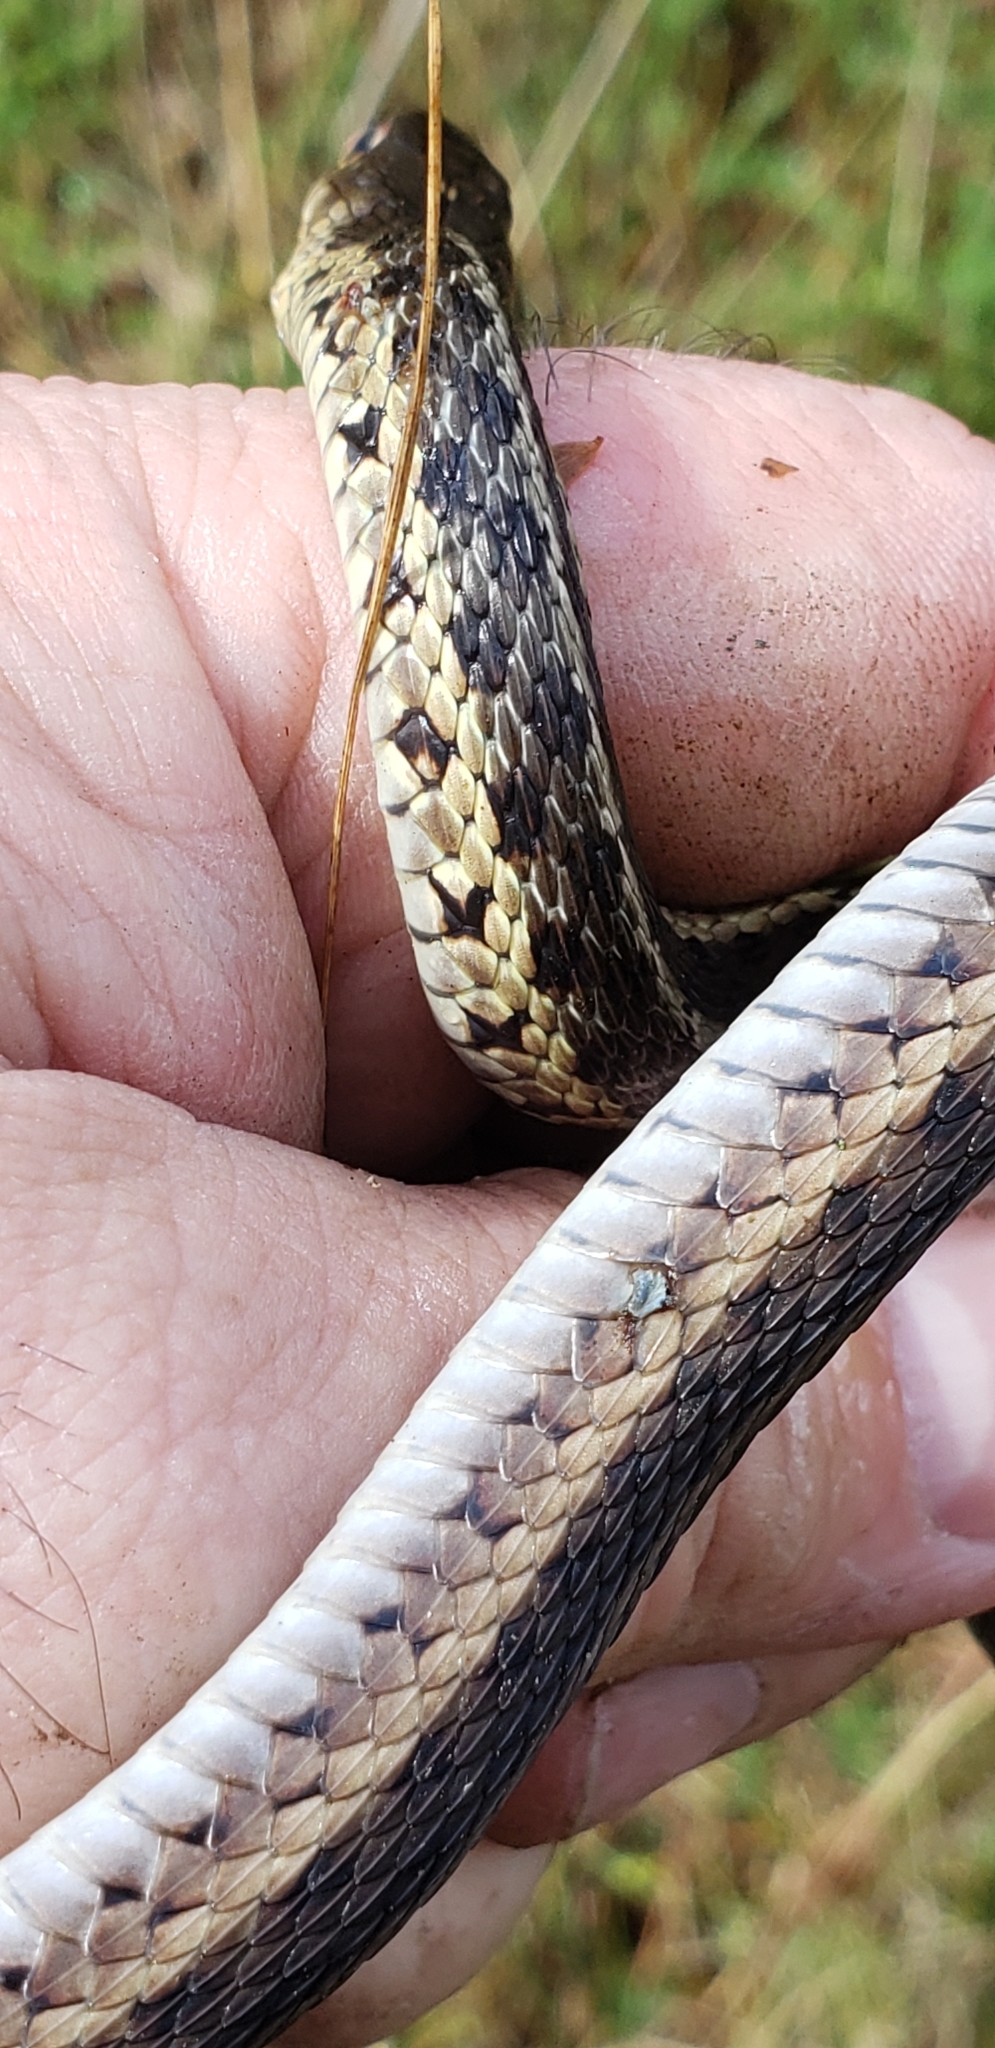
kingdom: Animalia
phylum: Chordata
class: Squamata
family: Colubridae
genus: Thamnophis
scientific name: Thamnophis sirtalis
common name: Common garter snake
